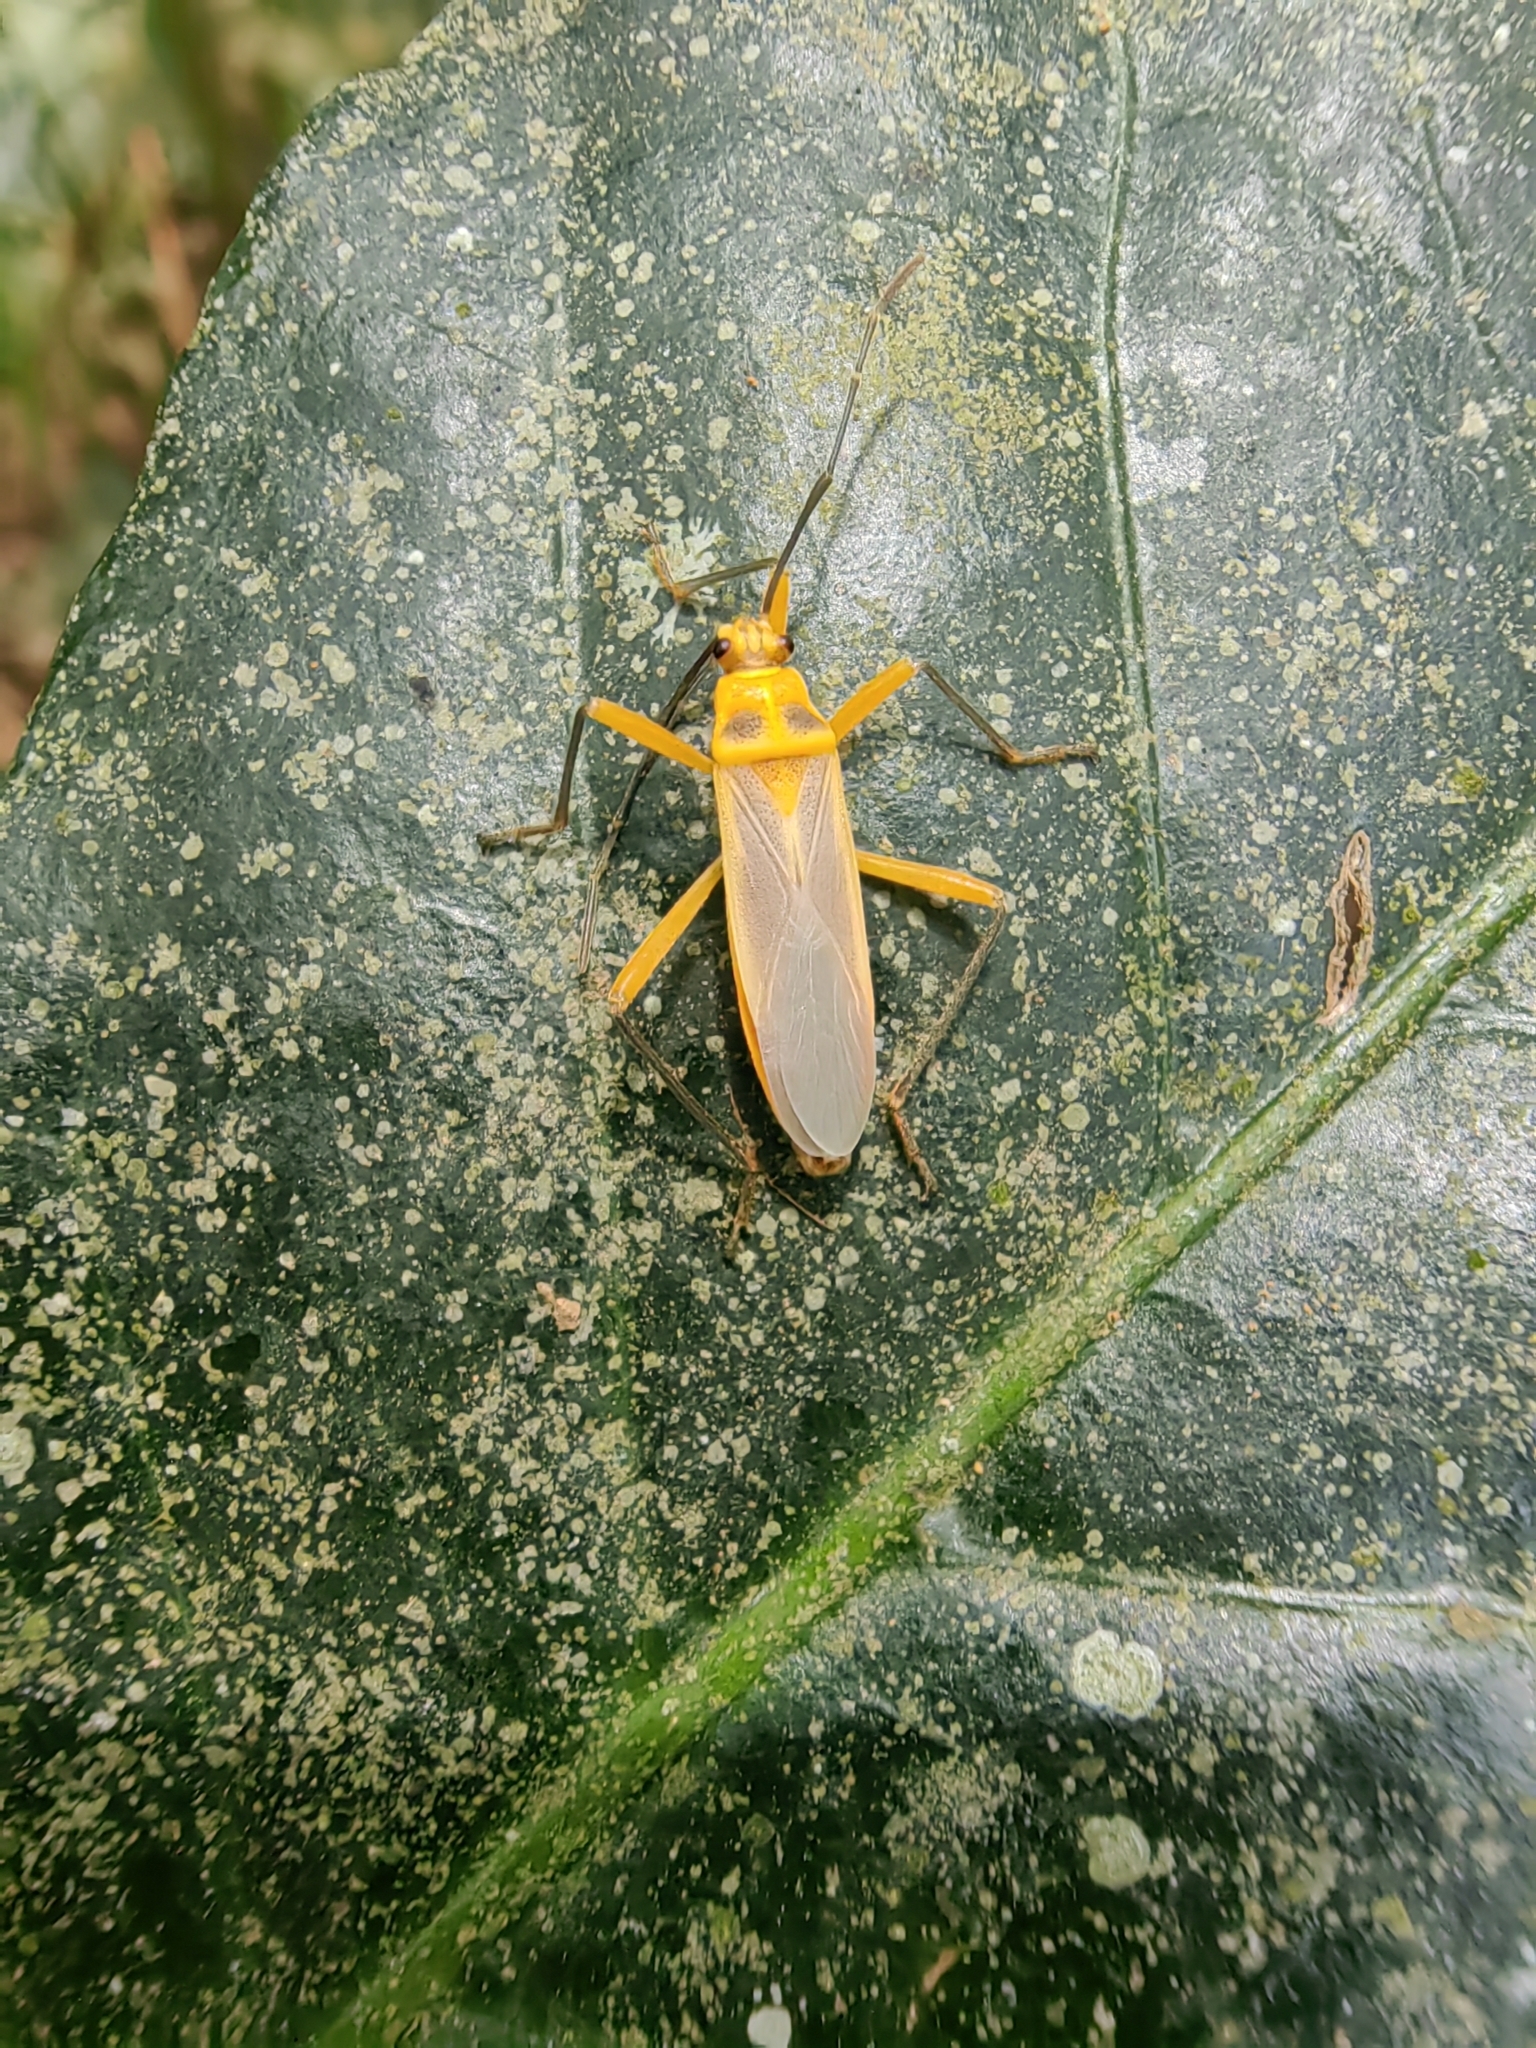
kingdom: Animalia
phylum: Arthropoda
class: Insecta
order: Hemiptera
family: Largidae
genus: Stenomacra
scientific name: Stenomacra marginella
